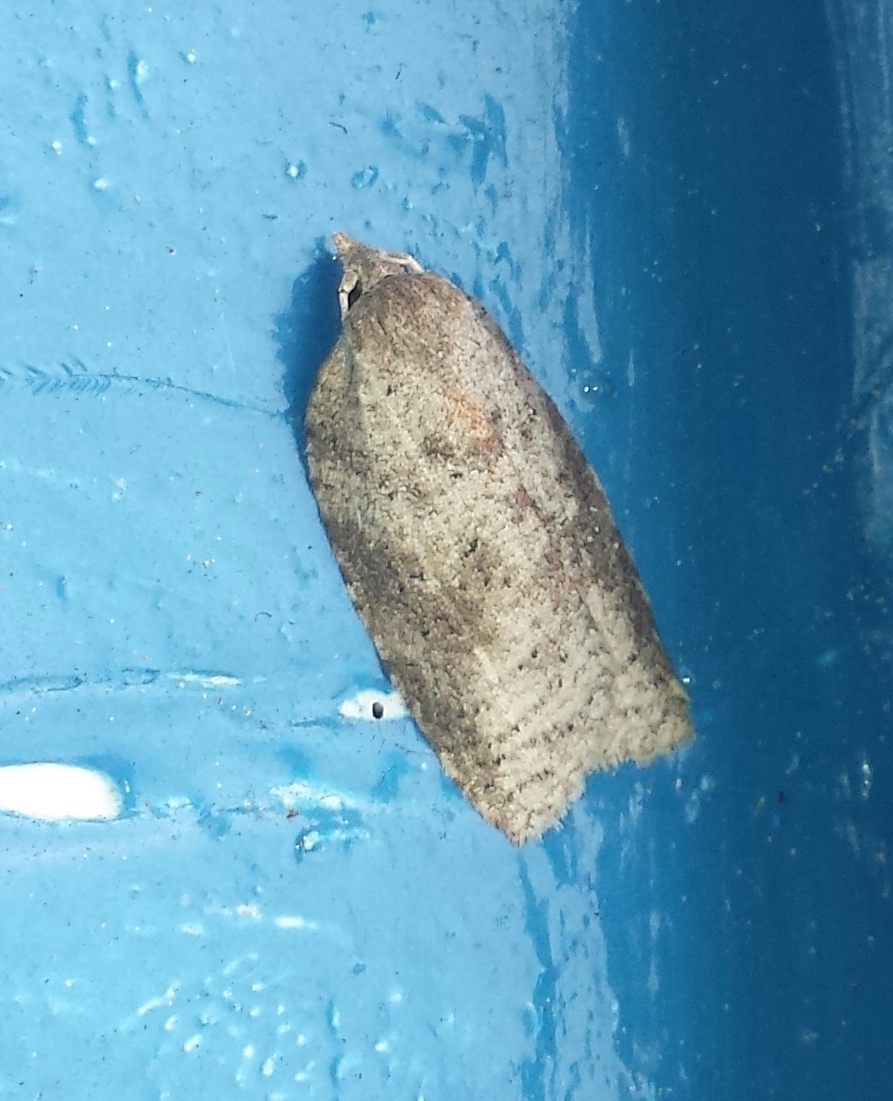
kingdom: Animalia
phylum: Arthropoda
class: Insecta
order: Lepidoptera
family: Tortricidae
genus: Amorbia
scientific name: Amorbia humerosana
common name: White-lined leafroller moth
